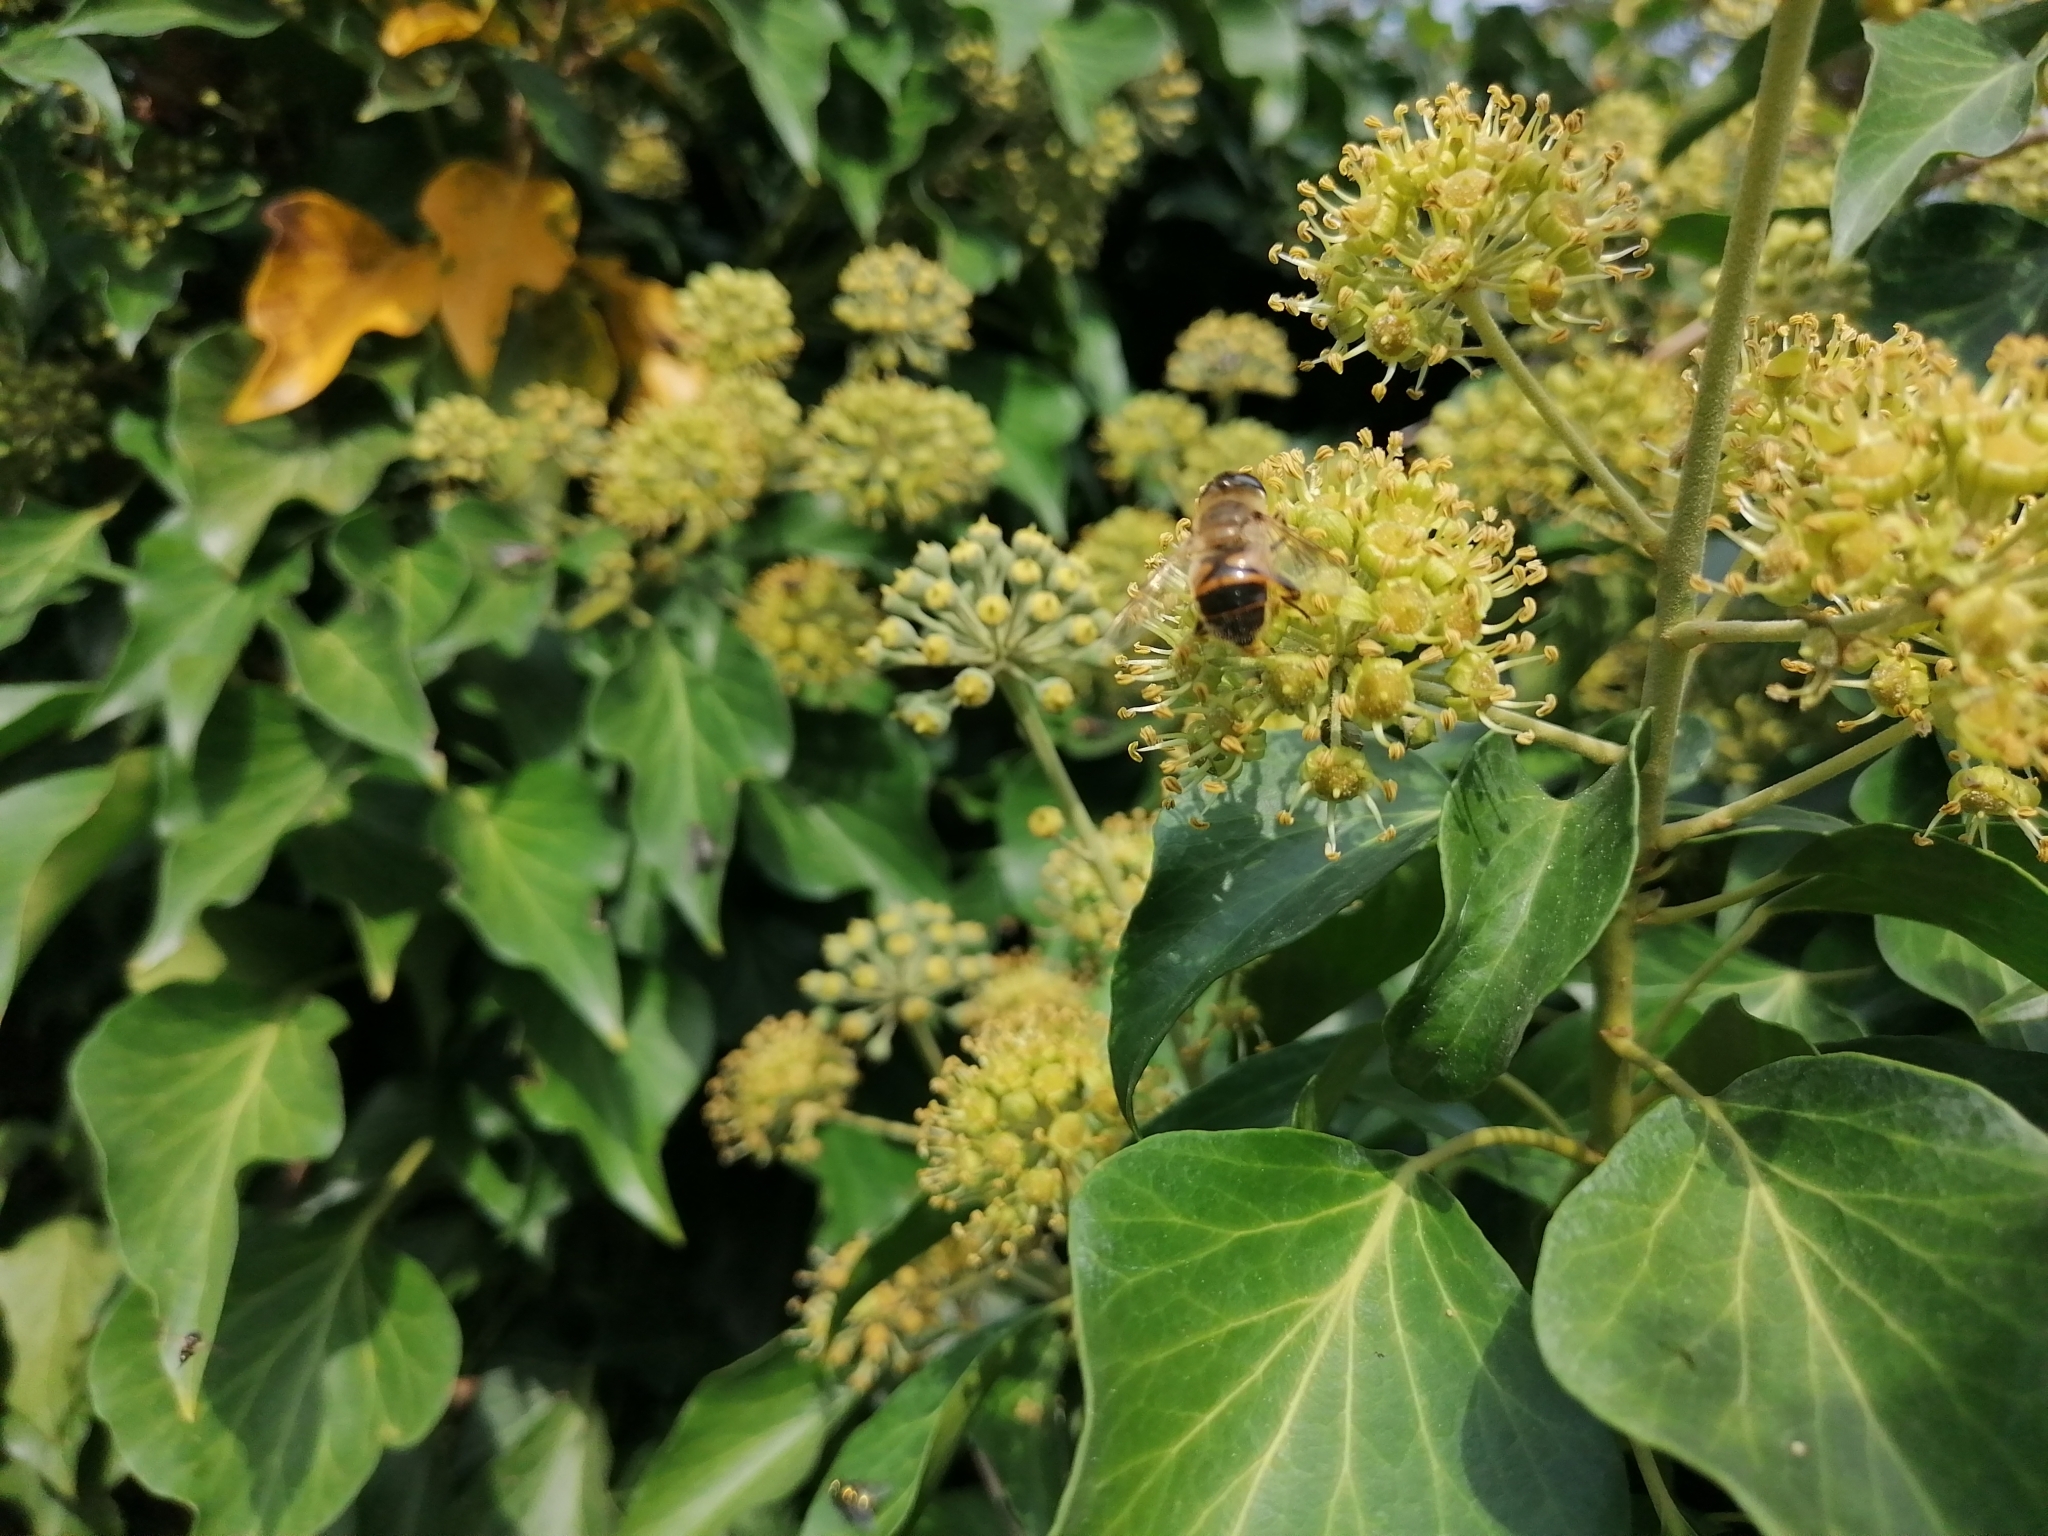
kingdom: Animalia
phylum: Arthropoda
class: Insecta
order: Diptera
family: Syrphidae
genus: Eristalis
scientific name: Eristalis tenax
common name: Drone fly
